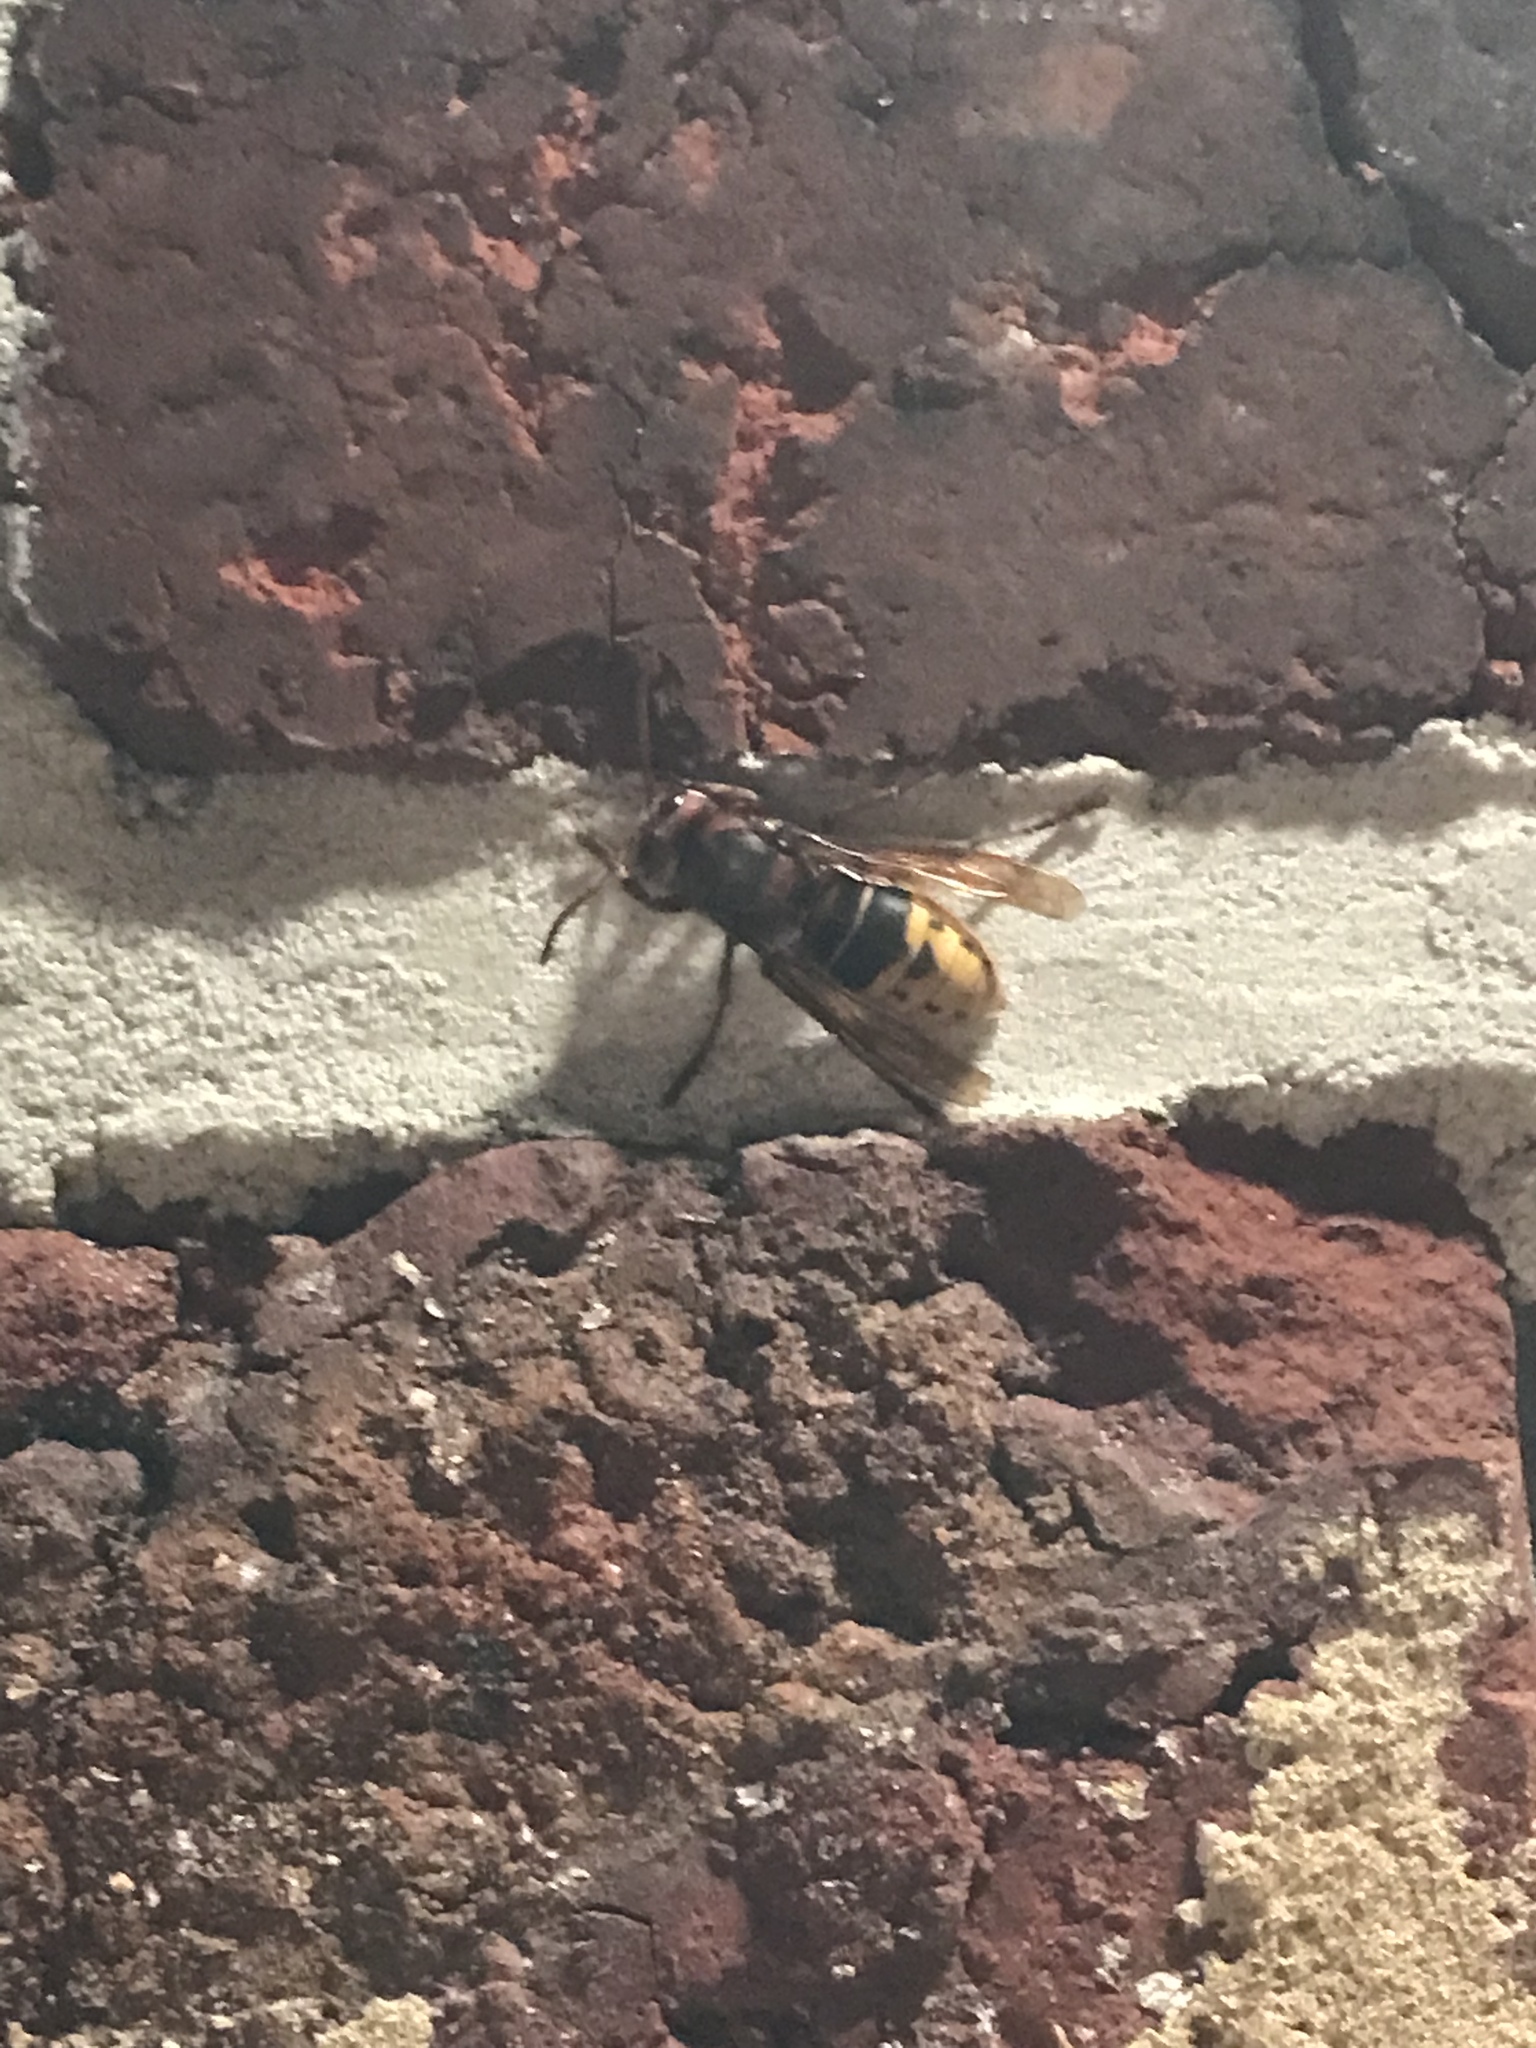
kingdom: Animalia
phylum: Arthropoda
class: Insecta
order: Hymenoptera
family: Vespidae
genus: Vespa
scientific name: Vespa crabro
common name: Hornet
